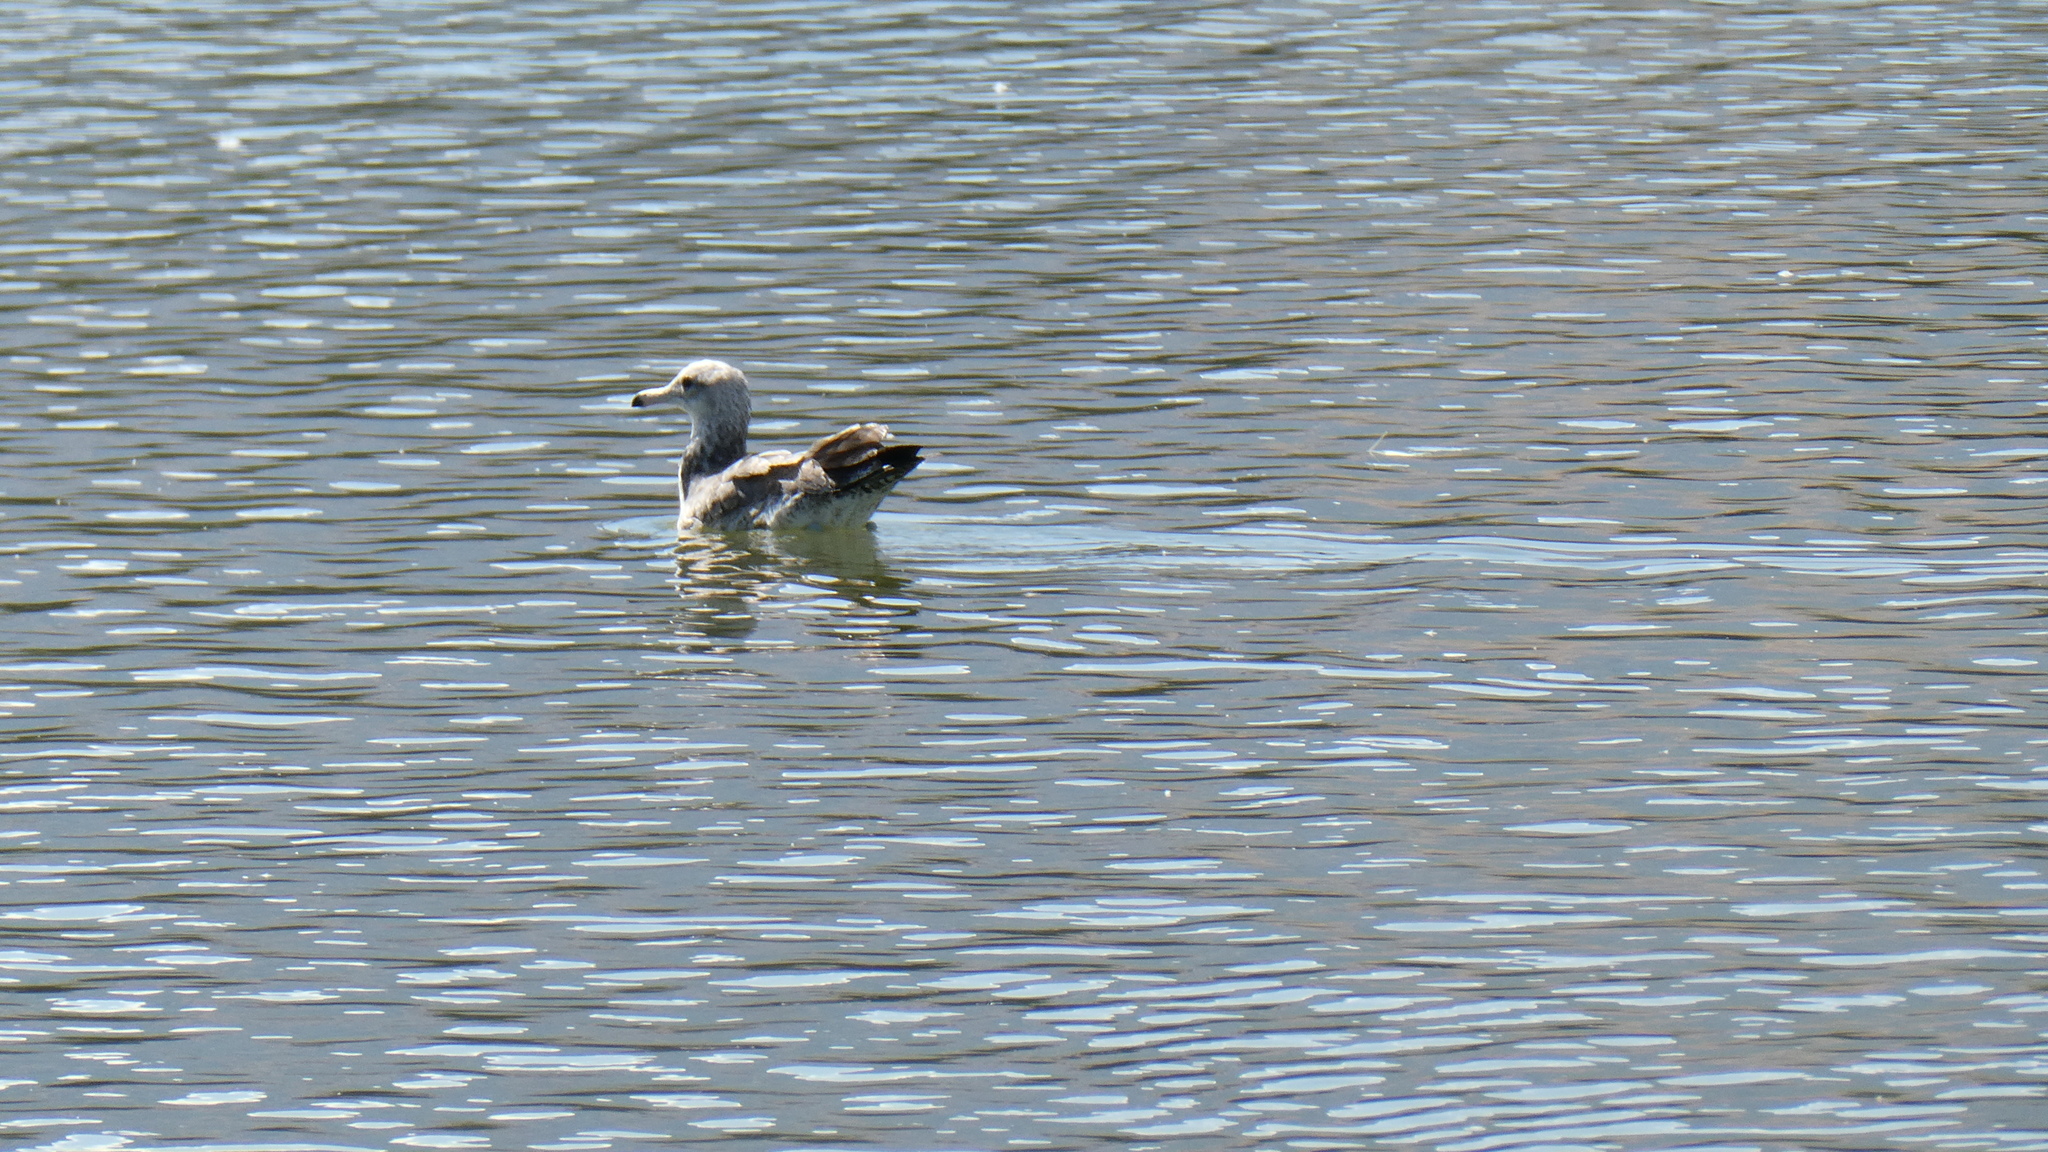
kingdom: Animalia
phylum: Chordata
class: Aves
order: Charadriiformes
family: Laridae
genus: Larus
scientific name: Larus californicus
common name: California gull
